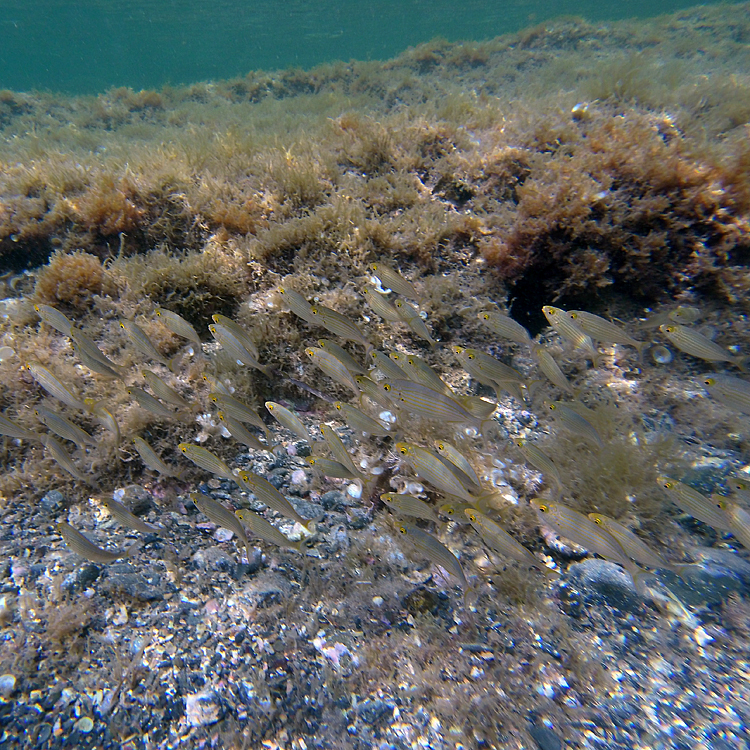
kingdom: Animalia
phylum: Chordata
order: Perciformes
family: Sparidae
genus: Sarpa
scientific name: Sarpa salpa
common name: Salema
